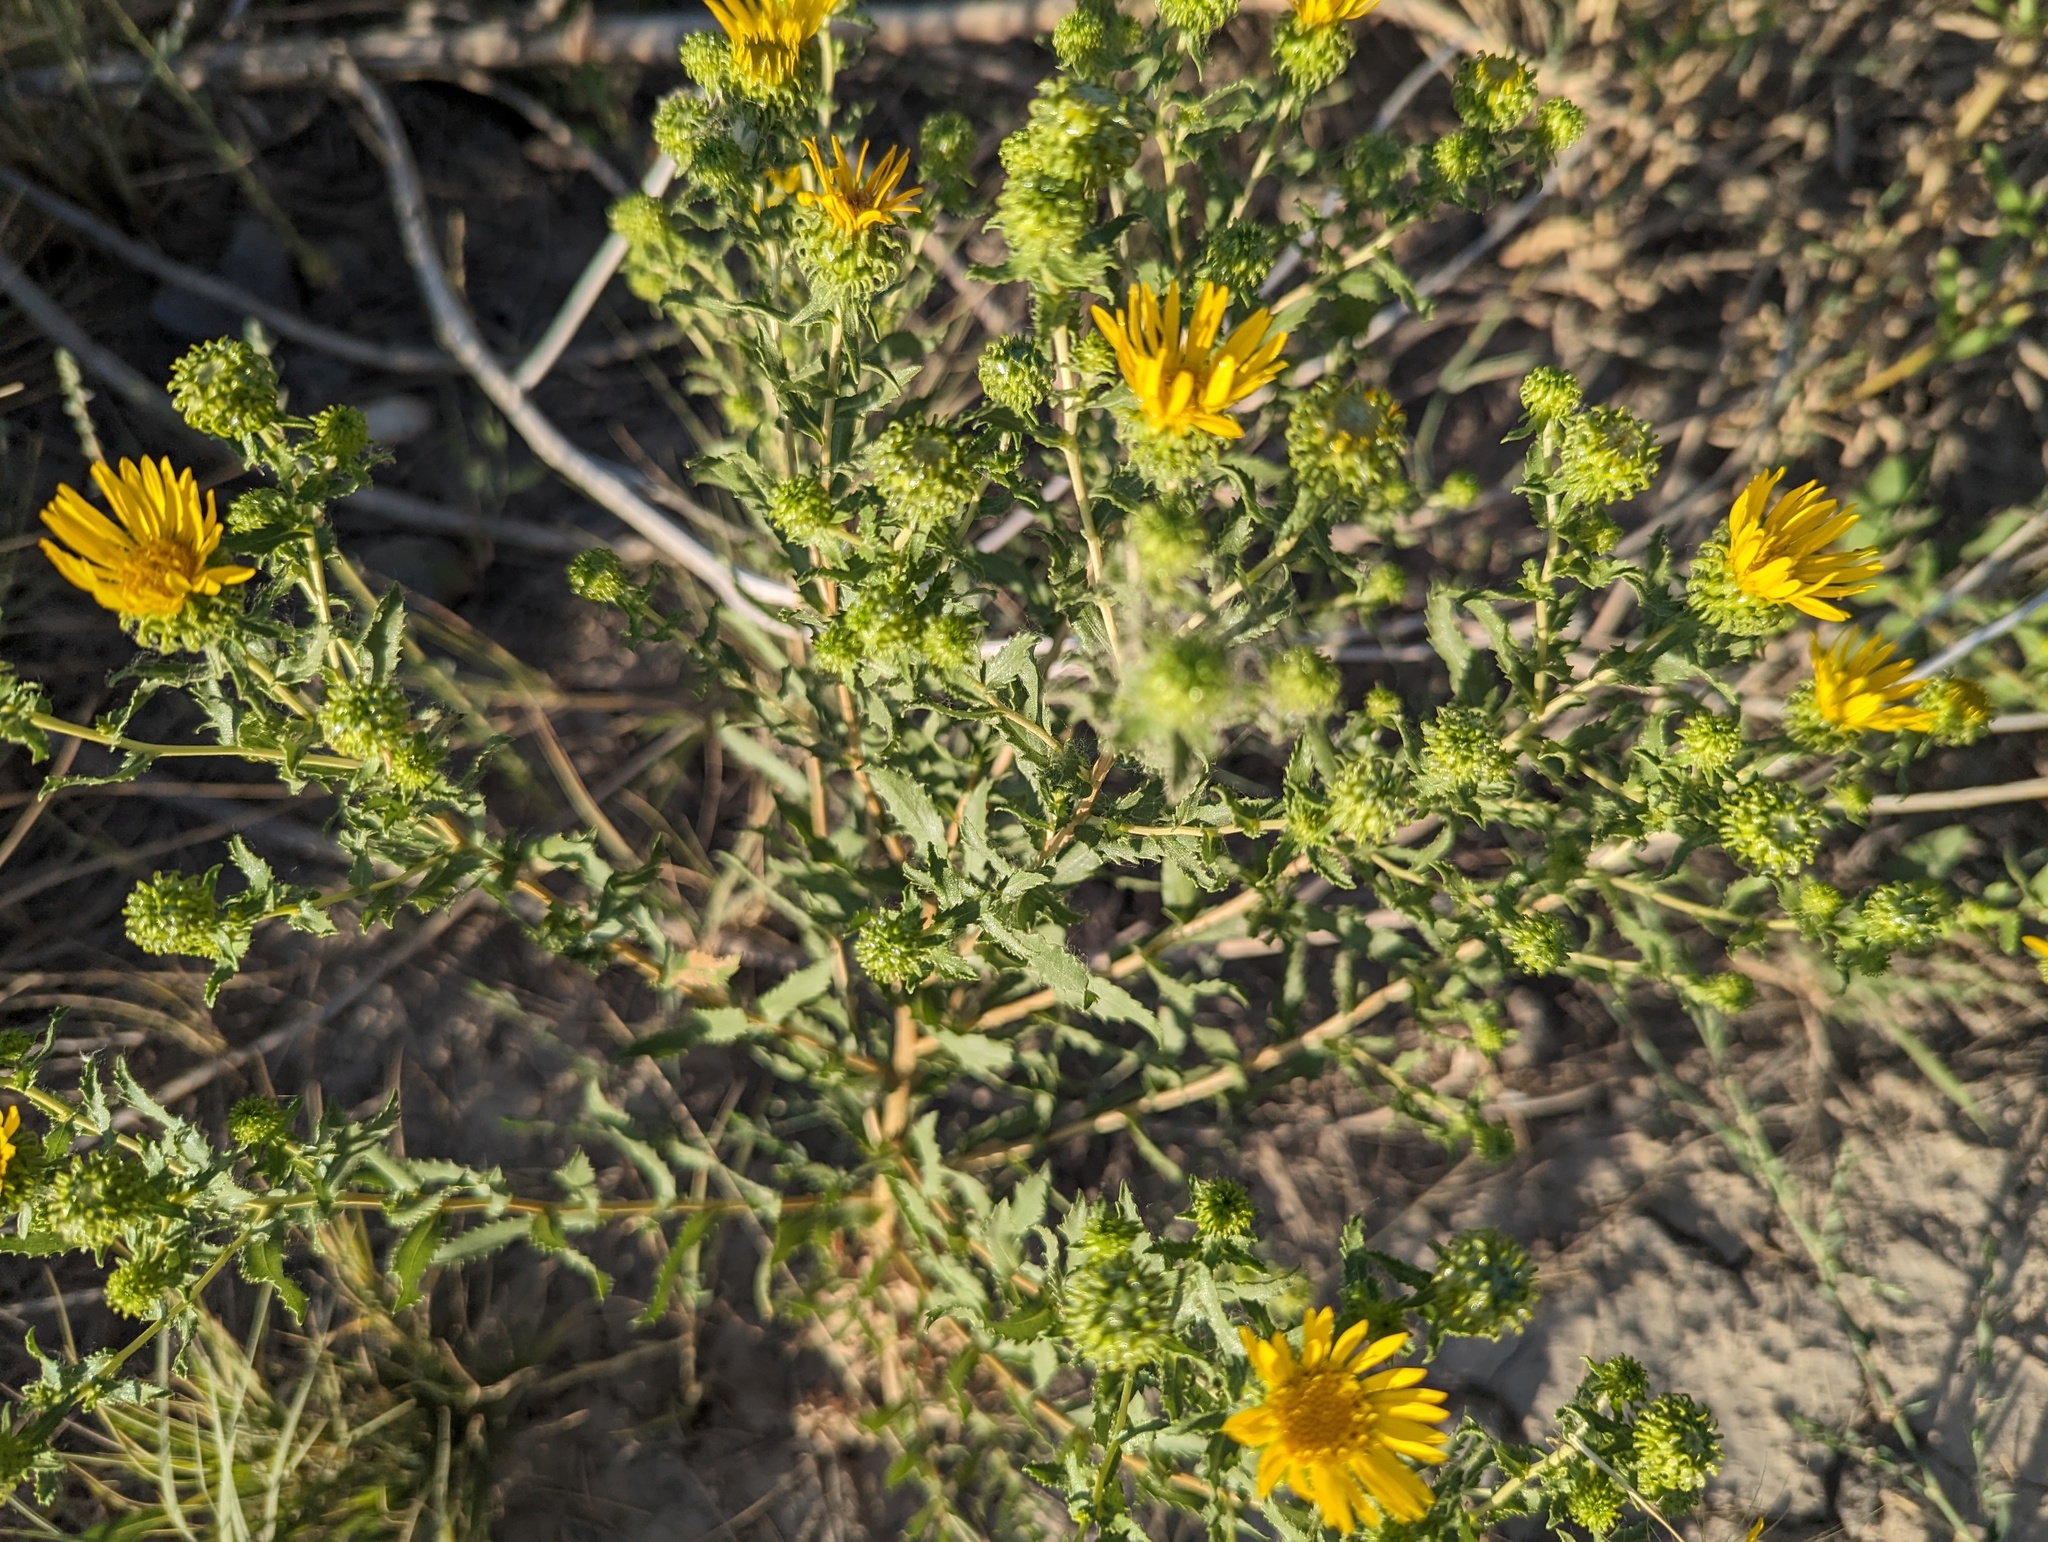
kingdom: Plantae
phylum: Tracheophyta
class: Magnoliopsida
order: Asterales
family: Asteraceae
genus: Grindelia
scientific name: Grindelia squarrosa
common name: Curly-cup gumweed
